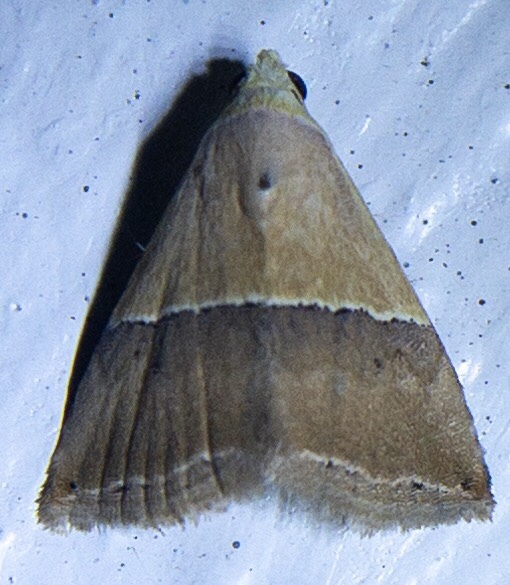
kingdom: Animalia
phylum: Arthropoda
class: Insecta
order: Lepidoptera
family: Noctuidae
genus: Eublemma
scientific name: Eublemma accedens
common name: Moth
